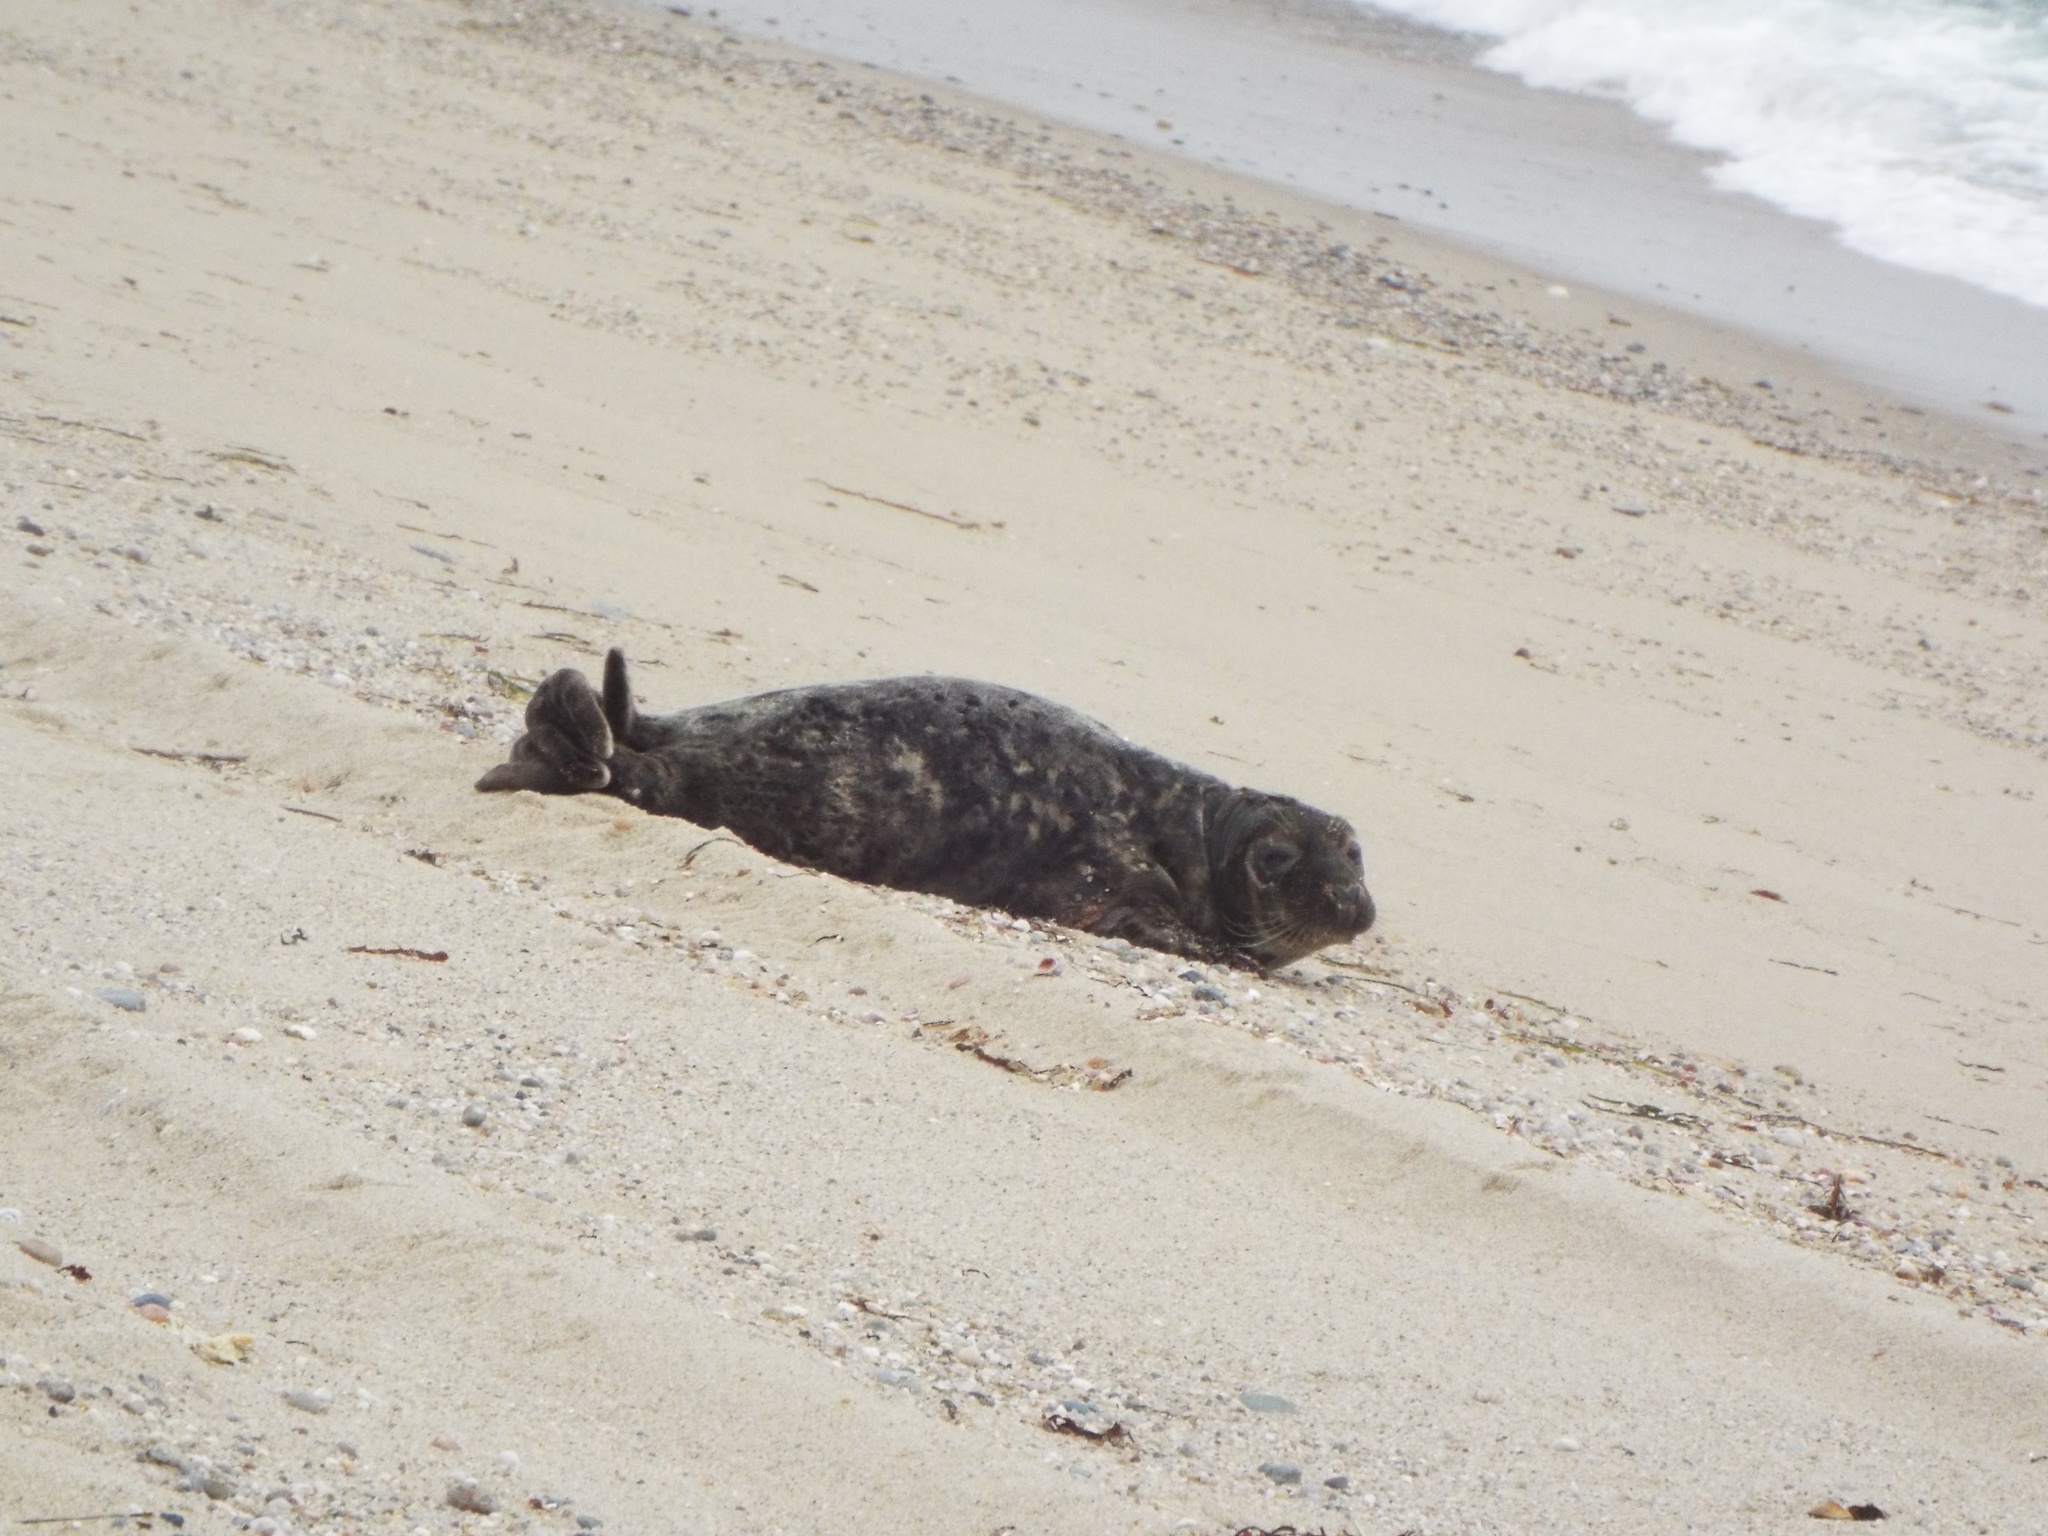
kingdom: Animalia
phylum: Chordata
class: Mammalia
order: Carnivora
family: Phocidae
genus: Halichoerus
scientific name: Halichoerus grypus
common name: Grey seal
